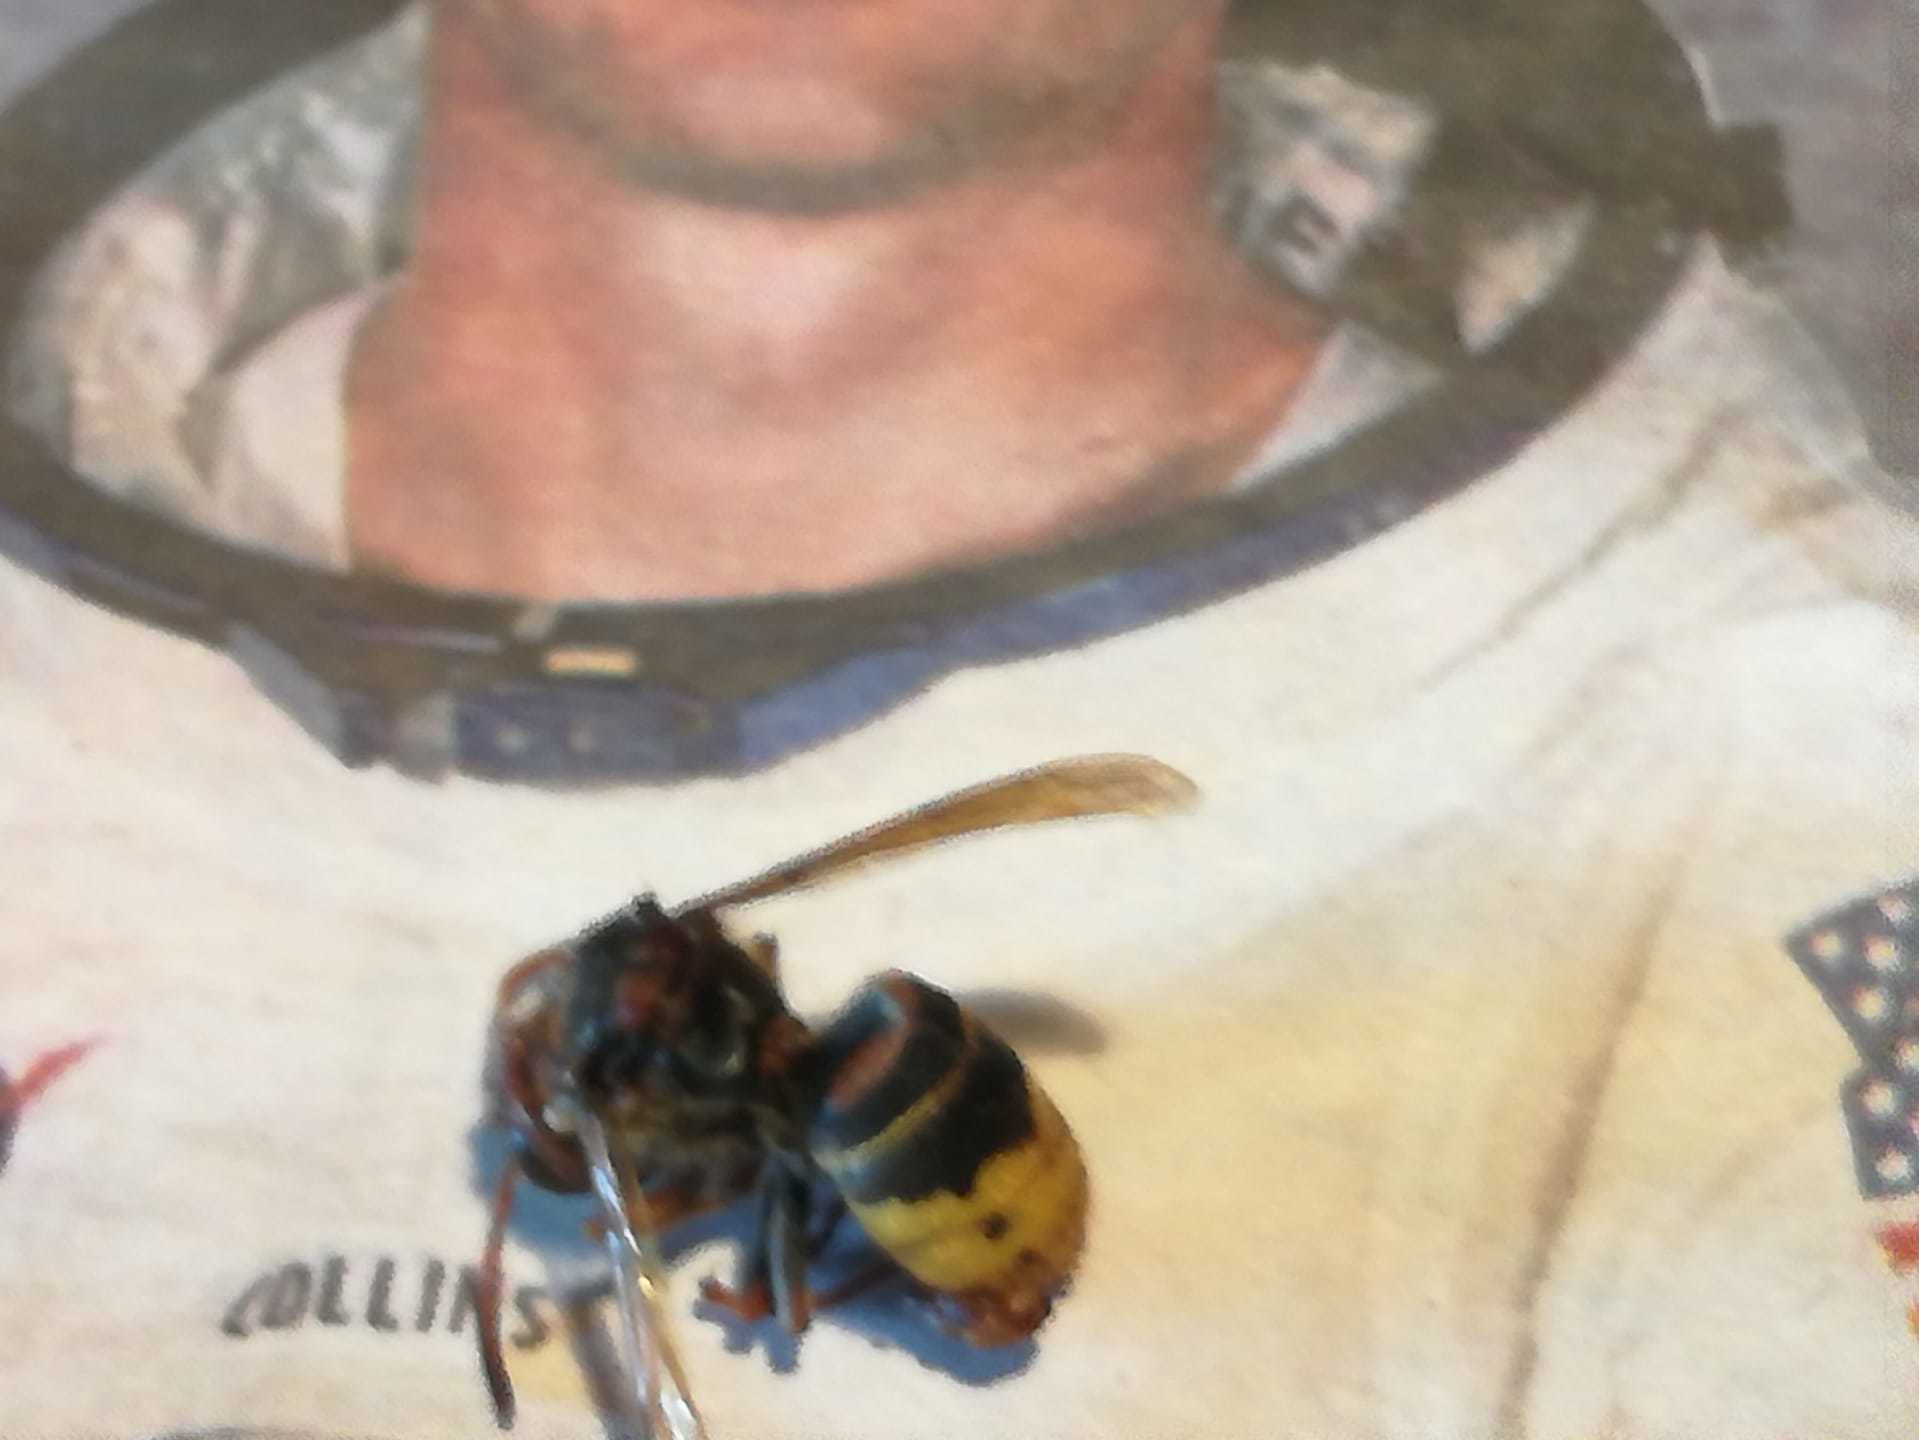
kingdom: Animalia
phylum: Arthropoda
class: Insecta
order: Hymenoptera
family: Vespidae
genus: Vespa
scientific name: Vespa crabro
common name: Hornet
